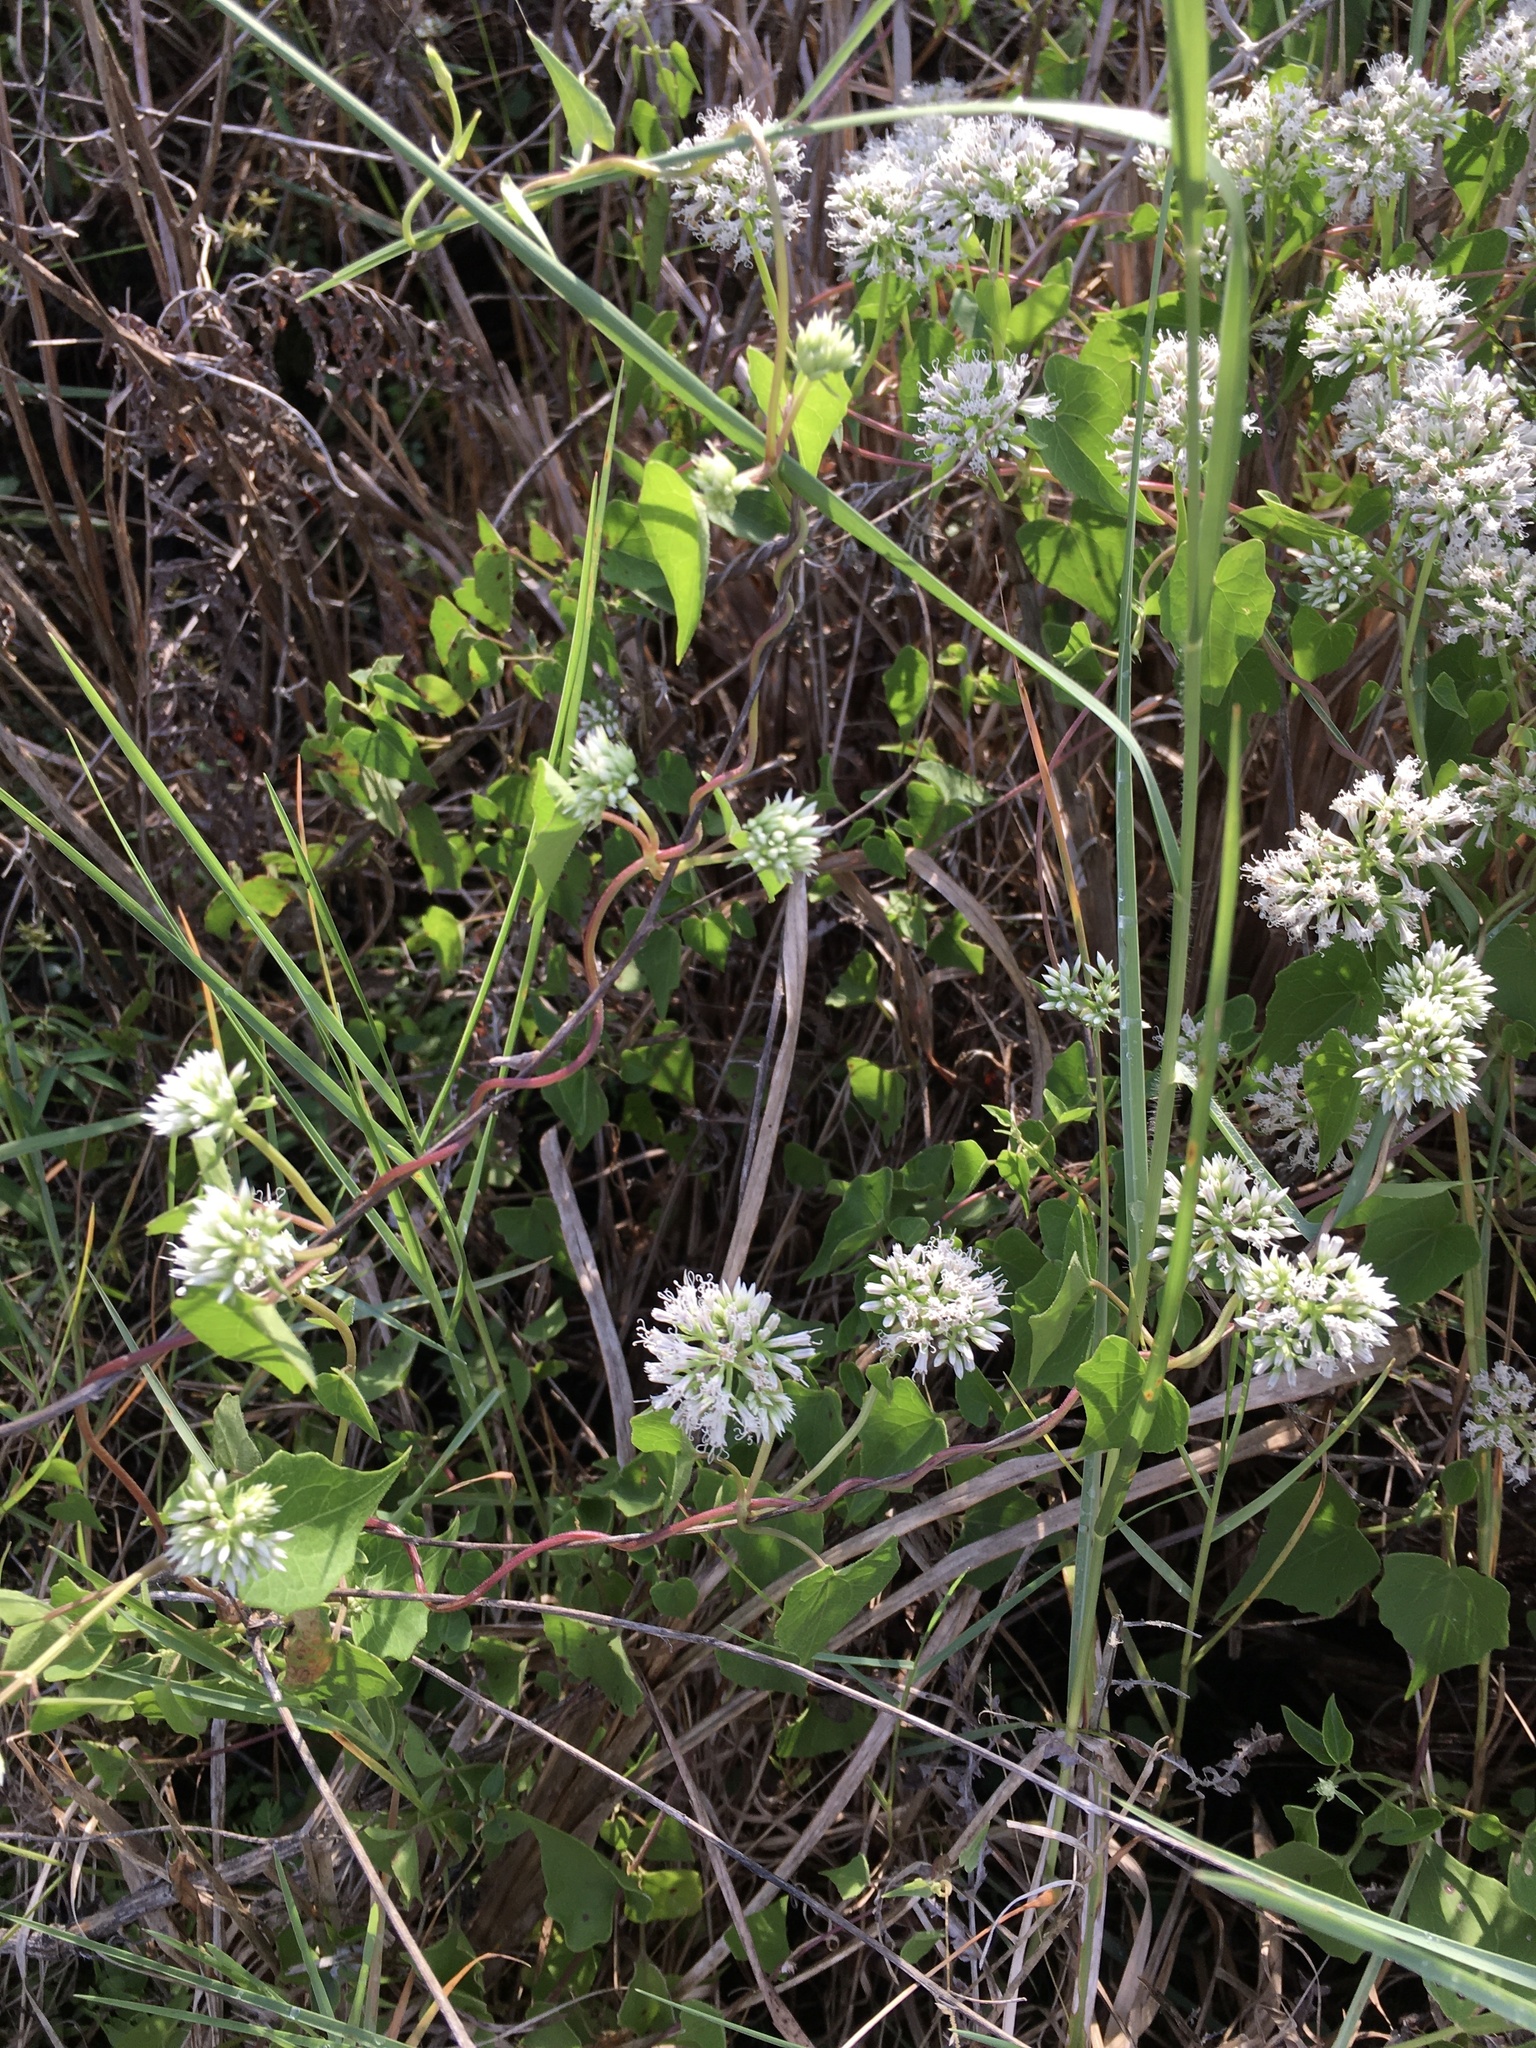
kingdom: Plantae
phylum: Tracheophyta
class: Magnoliopsida
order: Asterales
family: Asteraceae
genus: Mikania
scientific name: Mikania scandens
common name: Climbing hempvine
